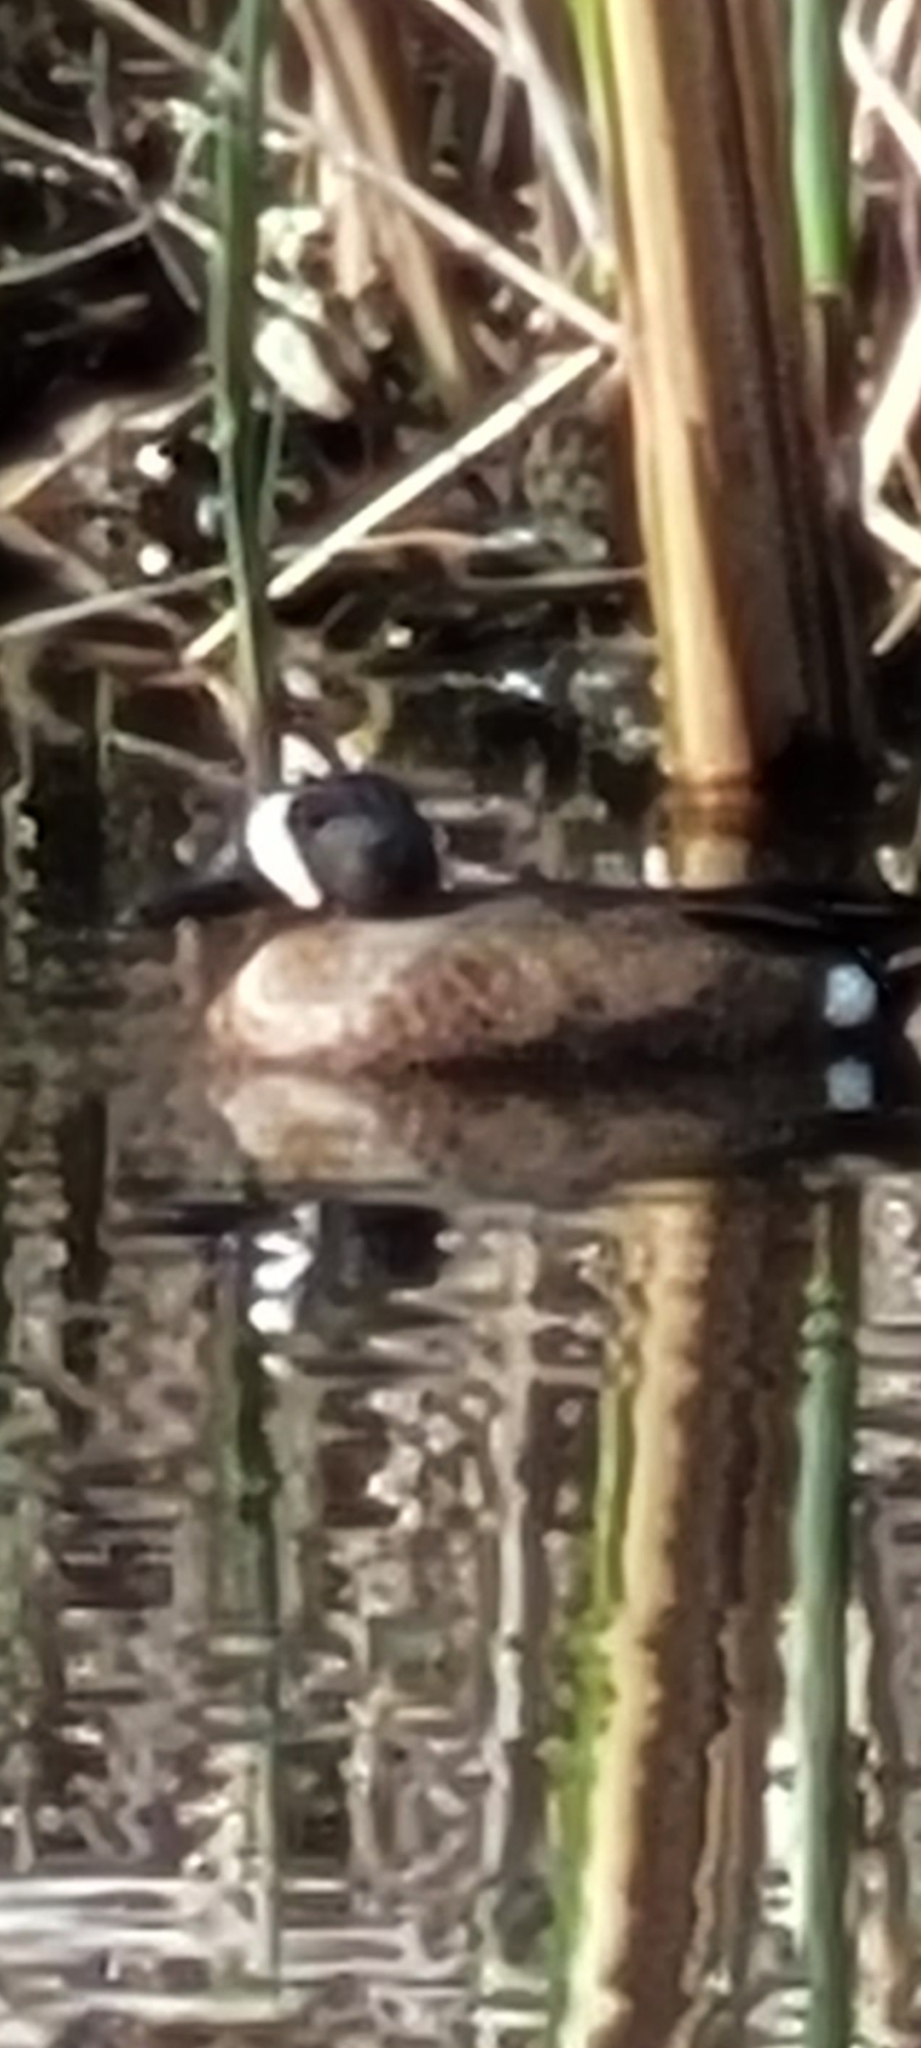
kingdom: Animalia
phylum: Chordata
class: Aves
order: Anseriformes
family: Anatidae
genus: Spatula
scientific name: Spatula discors
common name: Blue-winged teal
